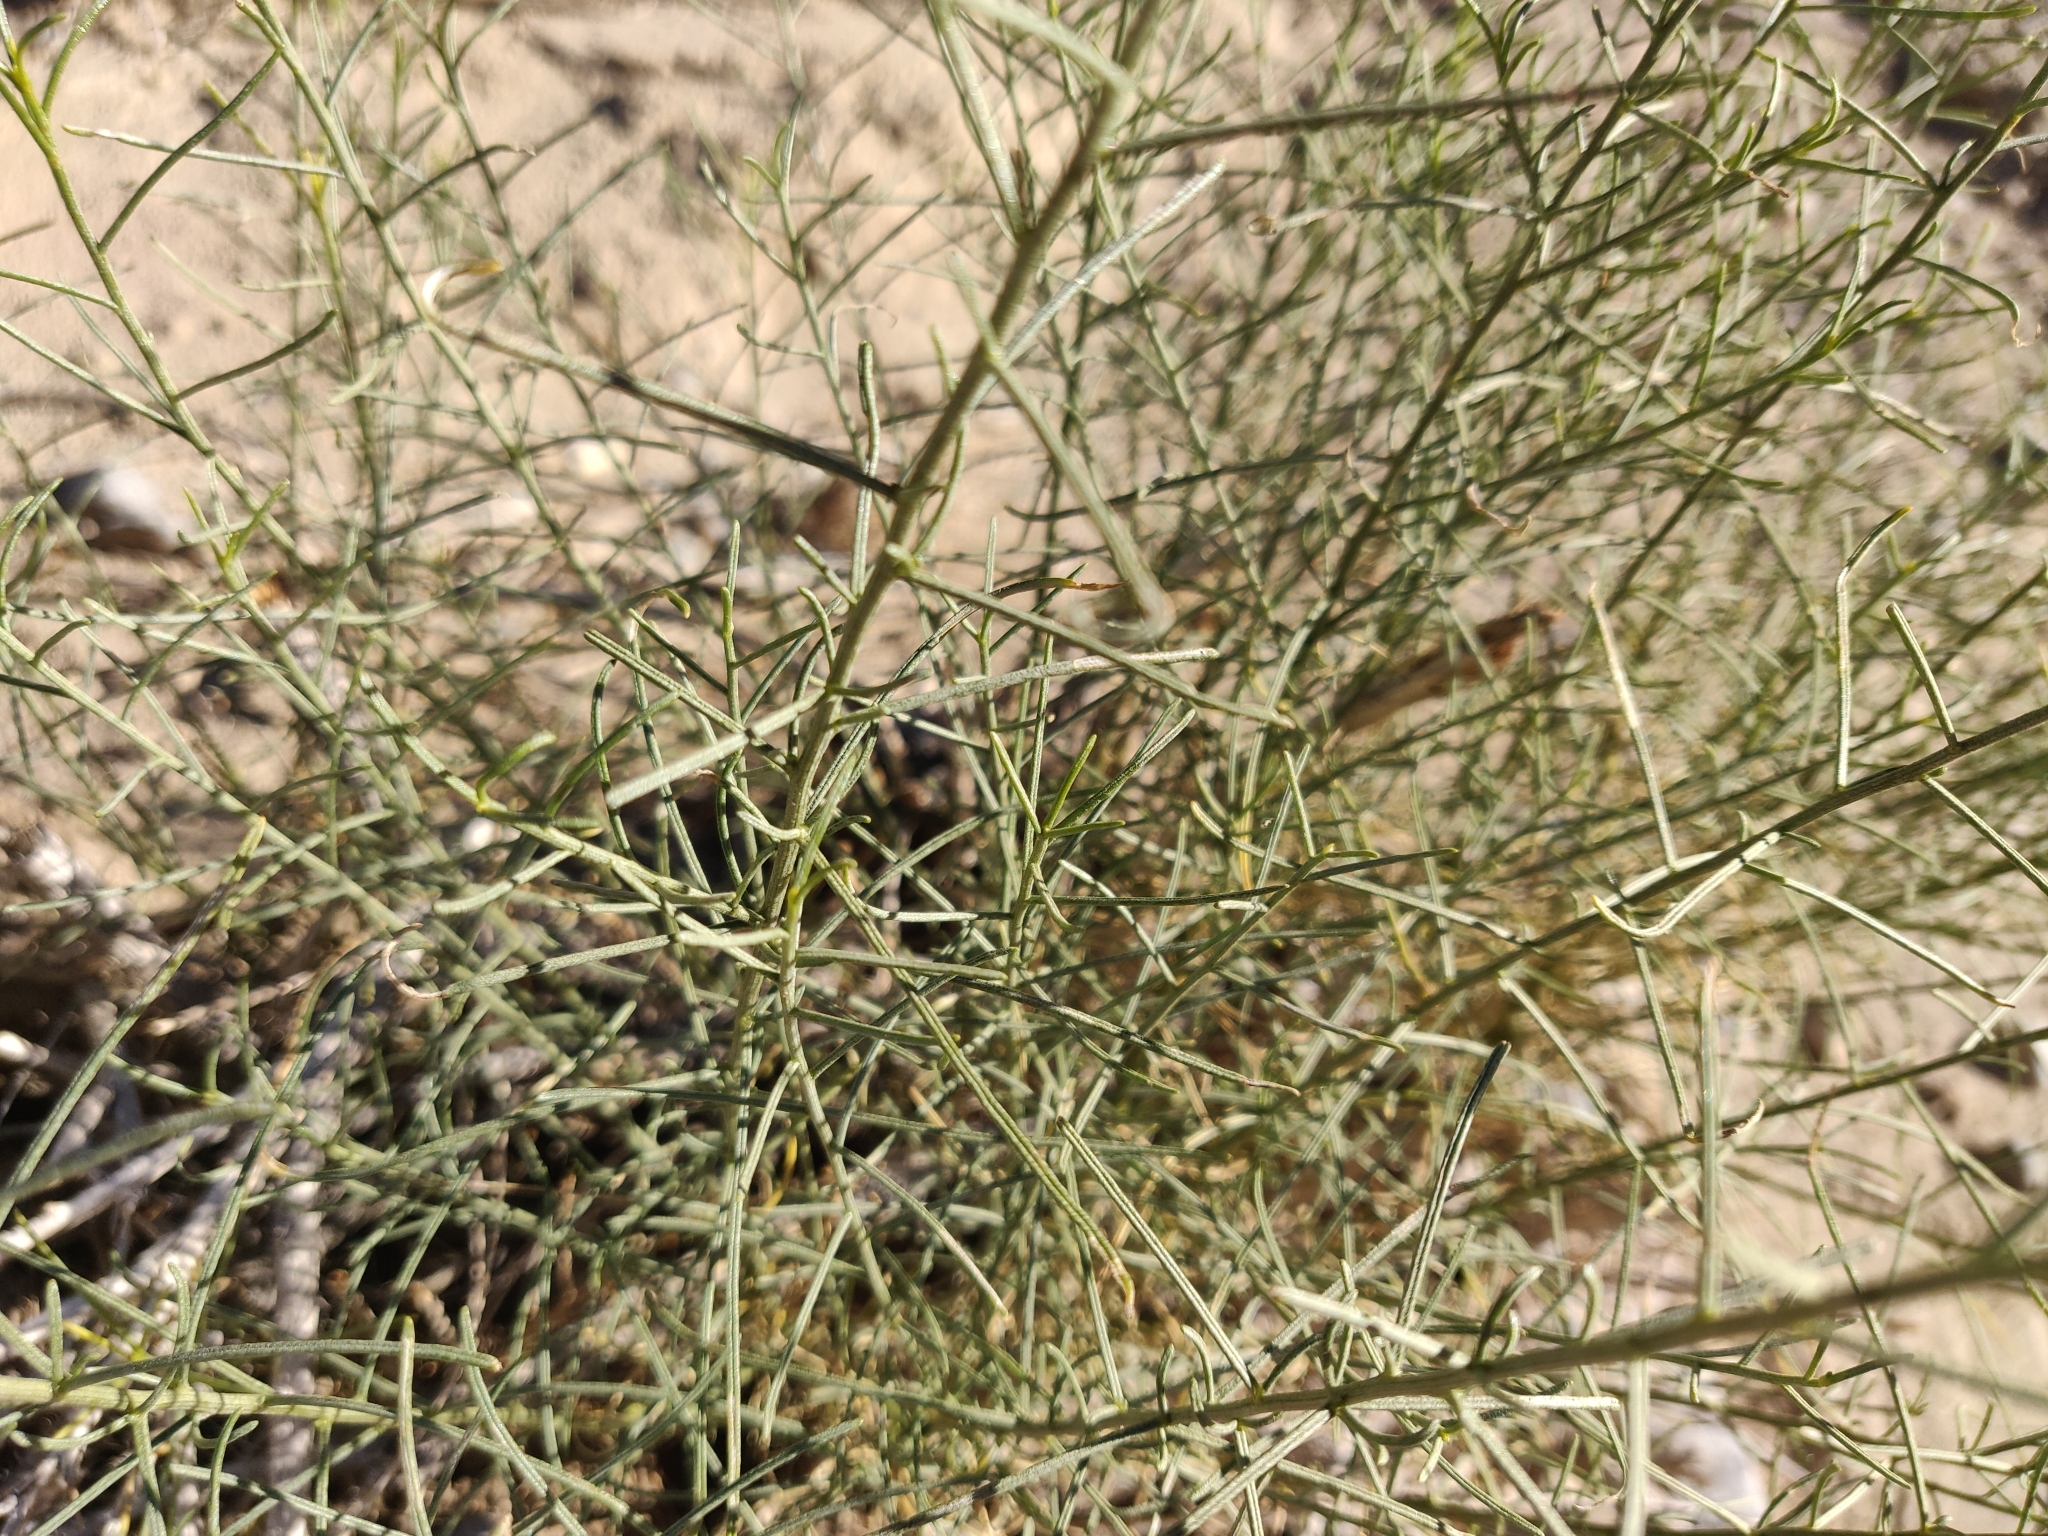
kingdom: Plantae
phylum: Tracheophyta
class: Magnoliopsida
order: Asterales
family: Asteraceae
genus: Ambrosia
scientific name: Ambrosia salsola
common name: Burrobrush
